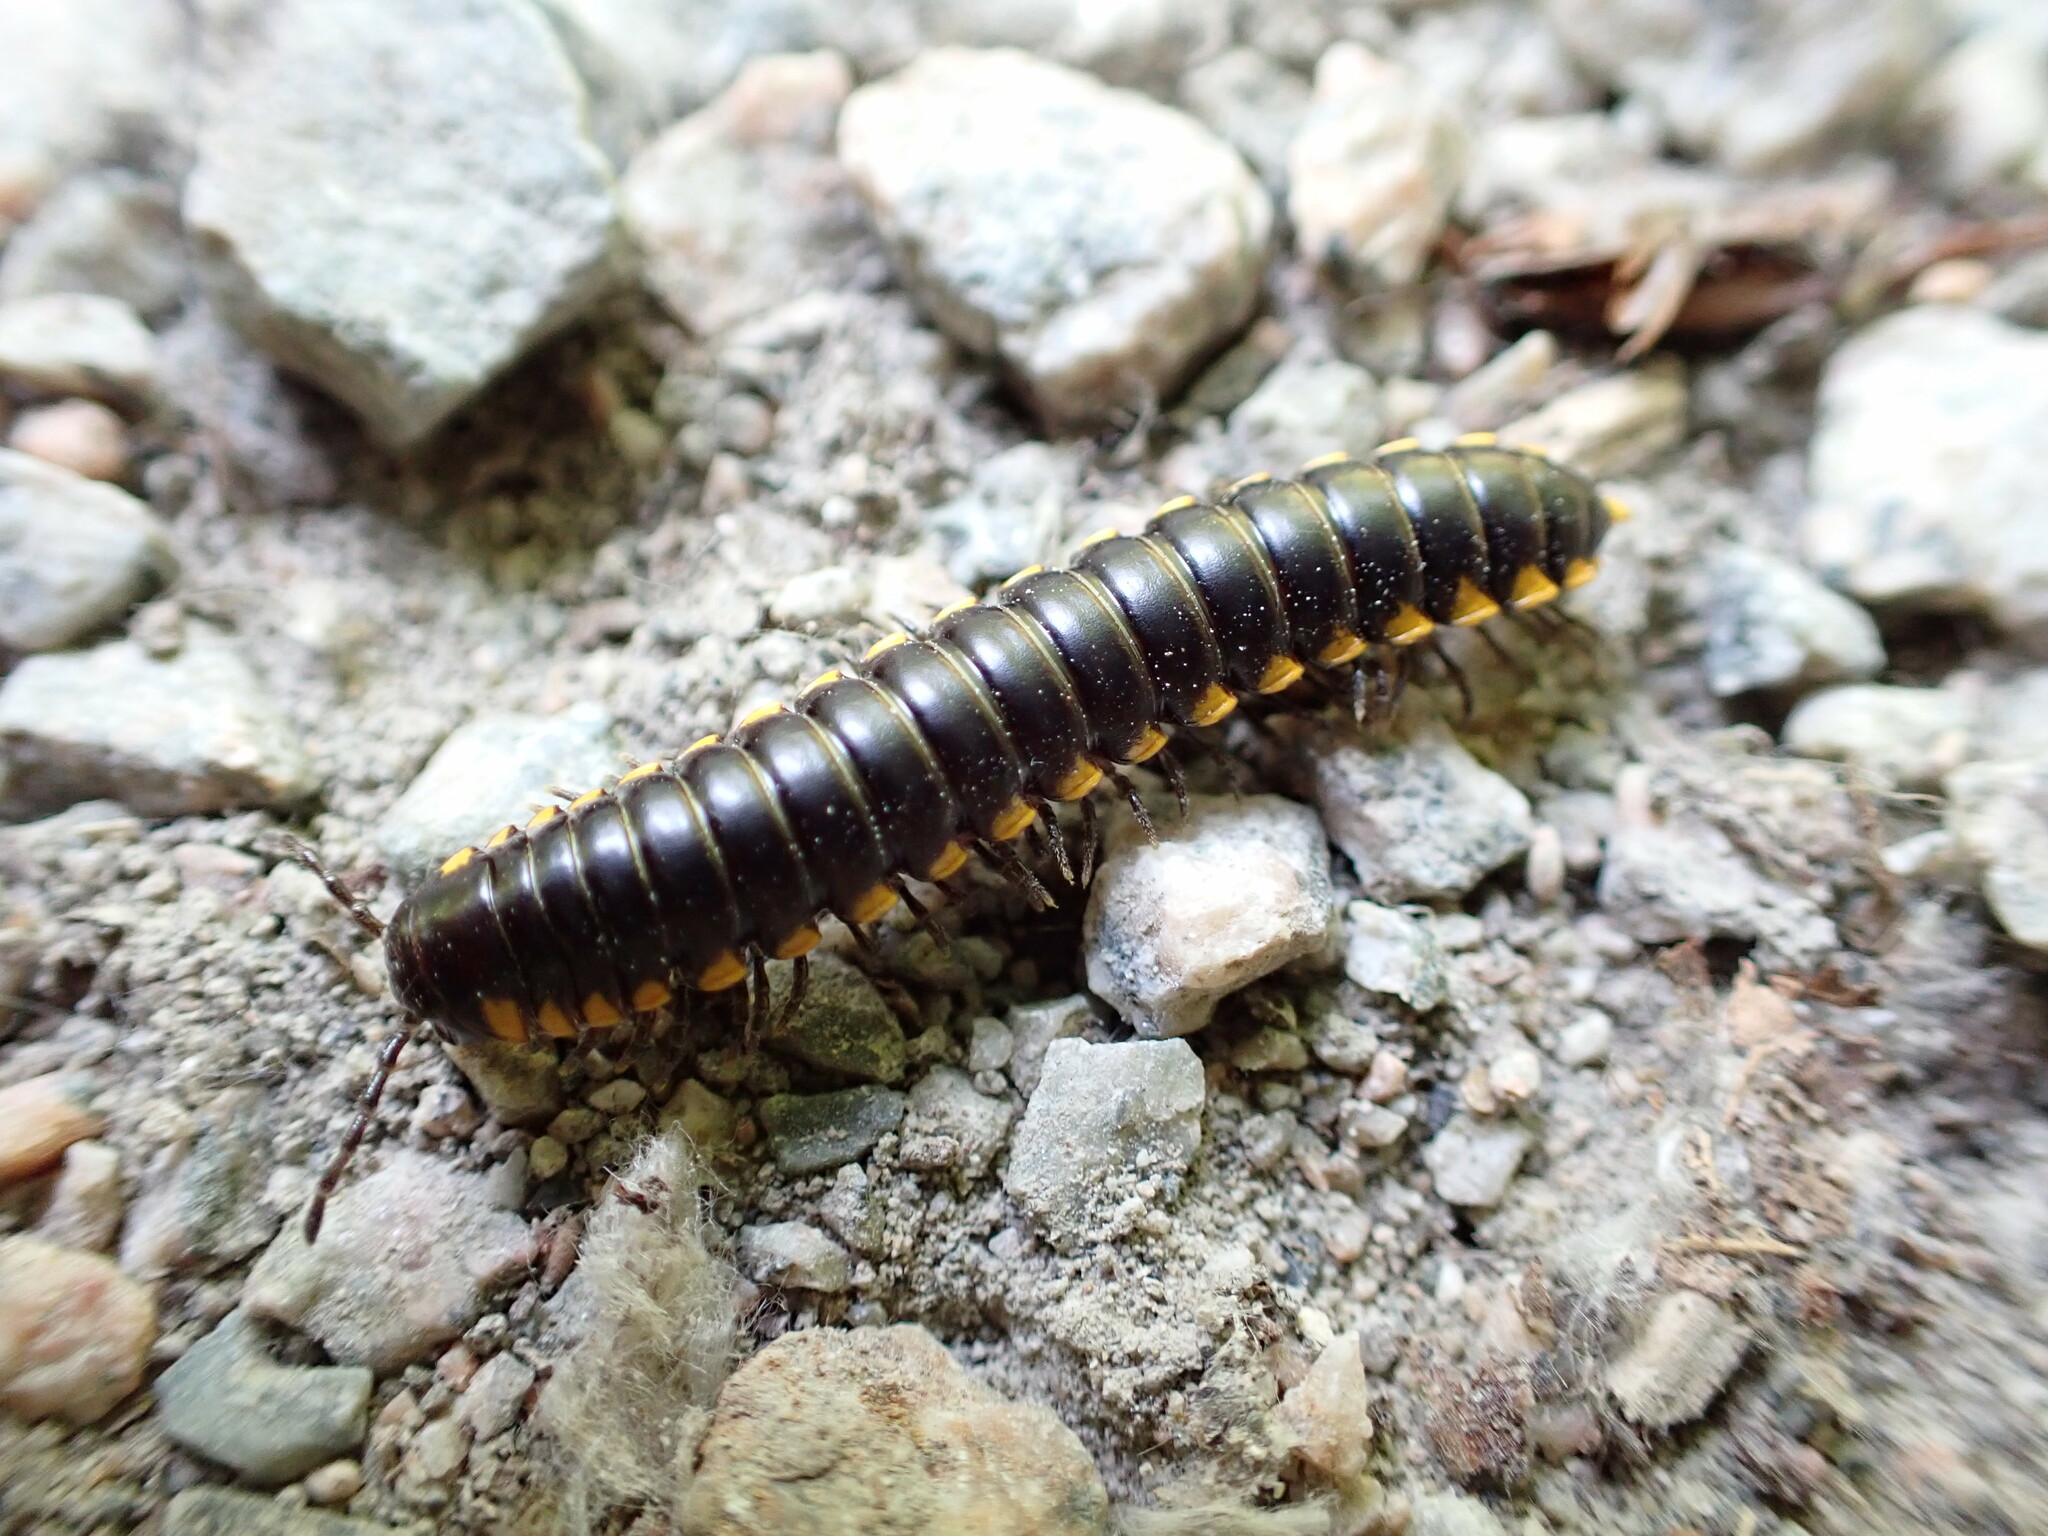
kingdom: Animalia
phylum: Arthropoda
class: Diplopoda
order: Polydesmida
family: Xystodesmidae
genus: Harpaphe
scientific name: Harpaphe haydeniana
